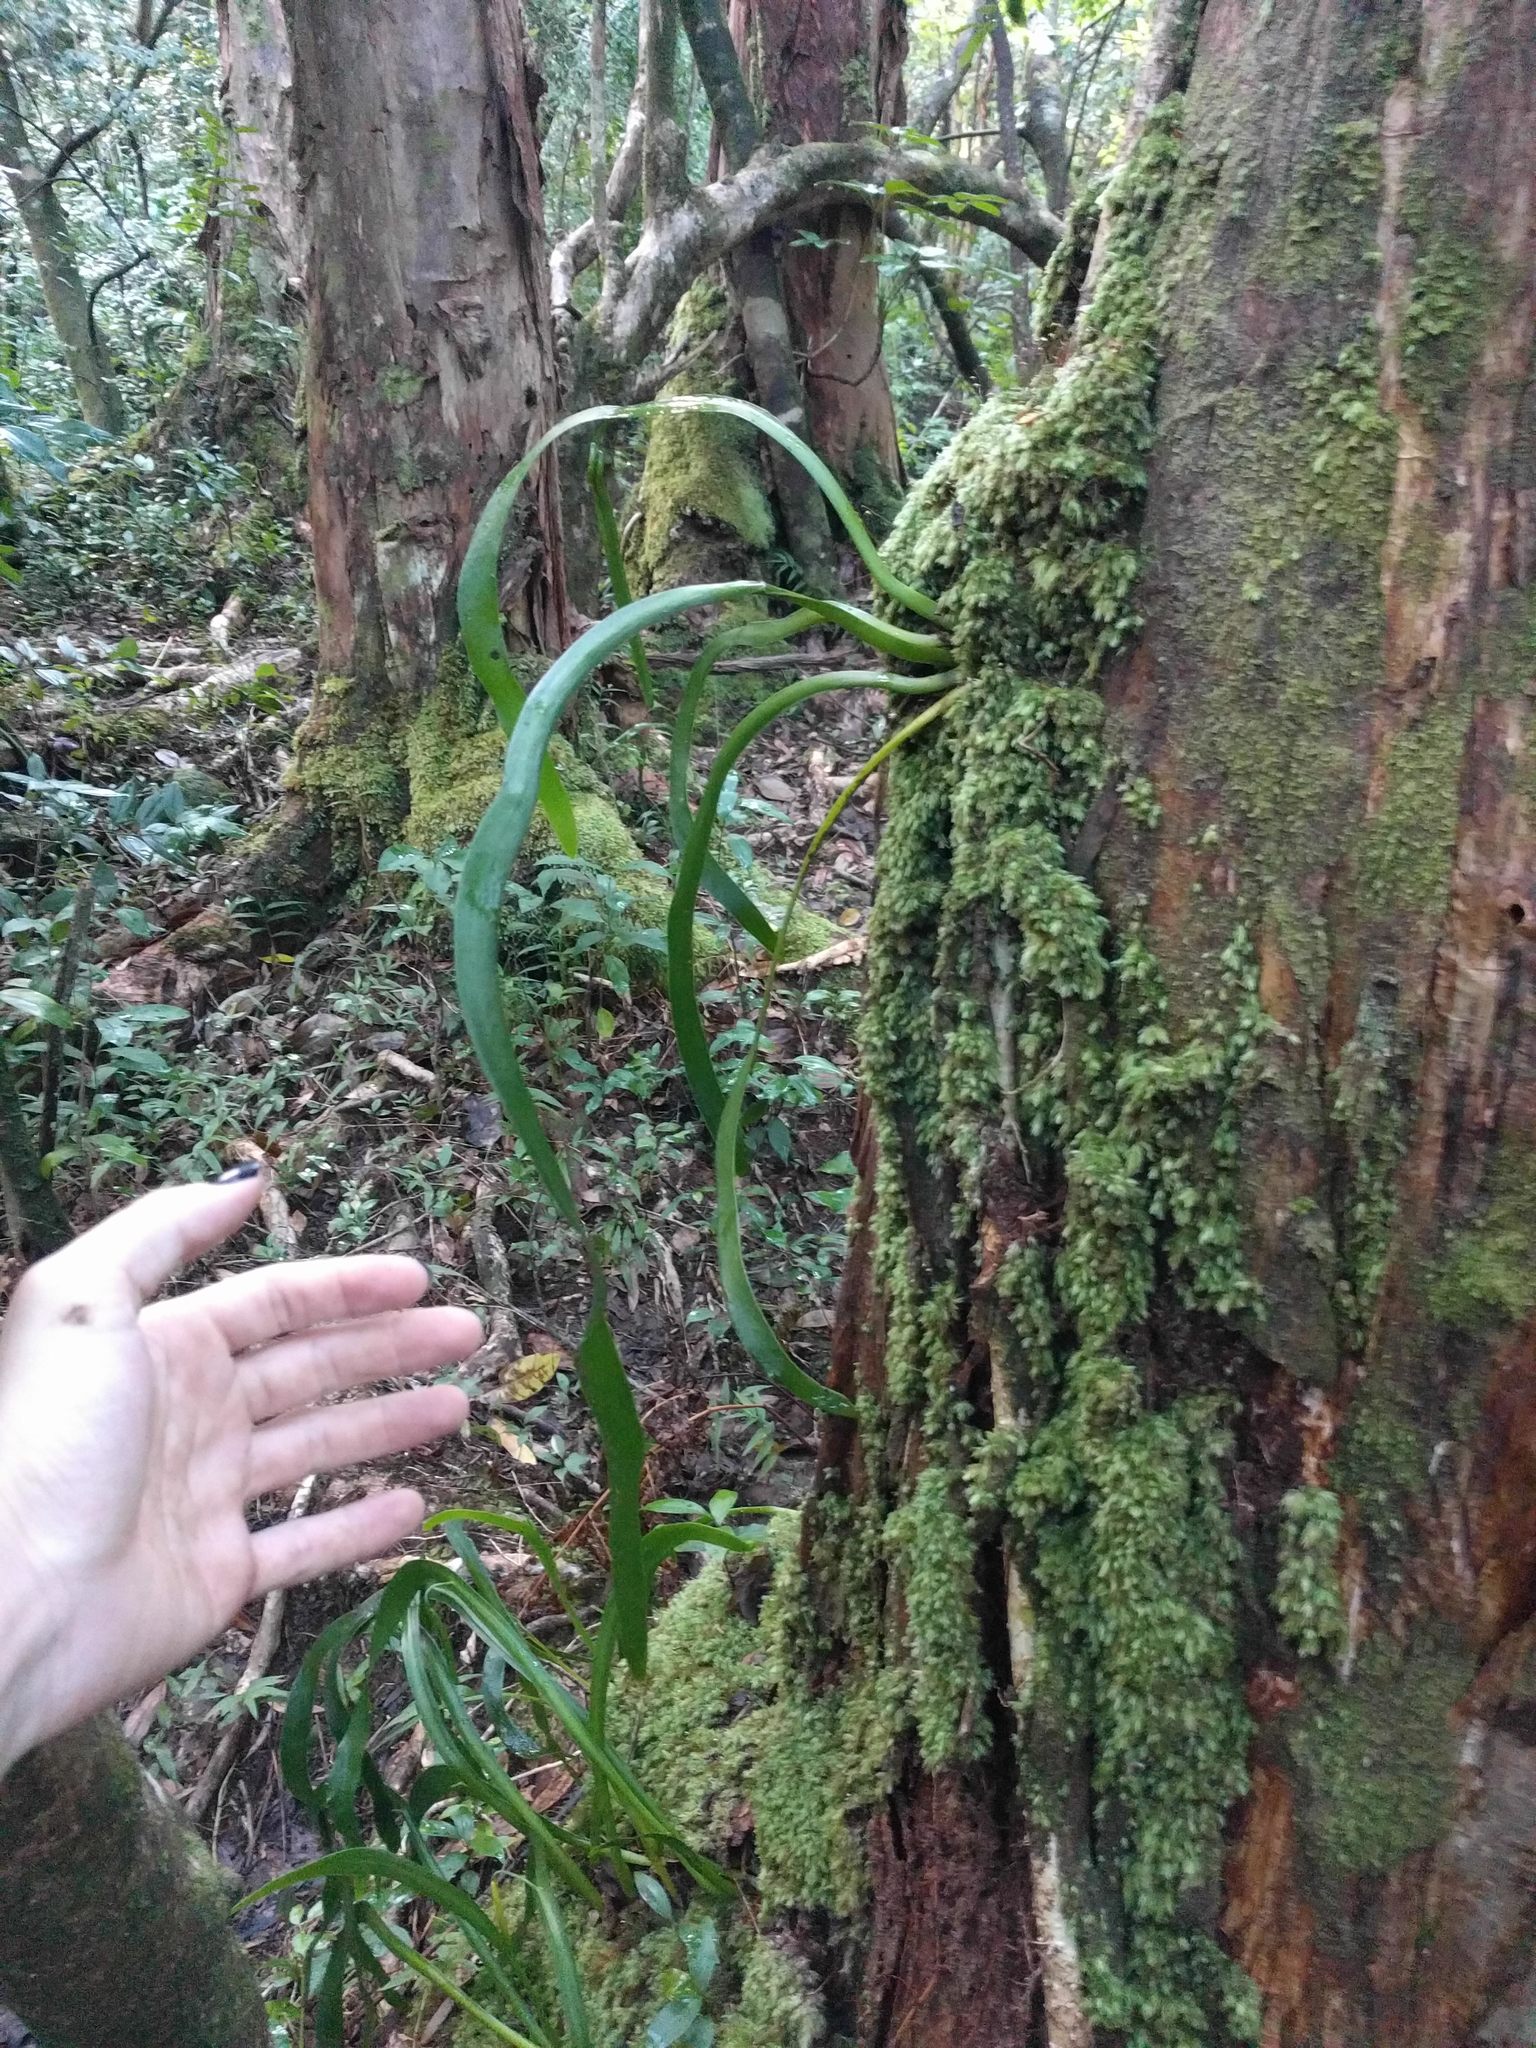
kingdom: Plantae
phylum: Tracheophyta
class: Polypodiopsida
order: Ophioglossales
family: Ophioglossaceae
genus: Ophioderma
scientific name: Ophioderma falcatum
